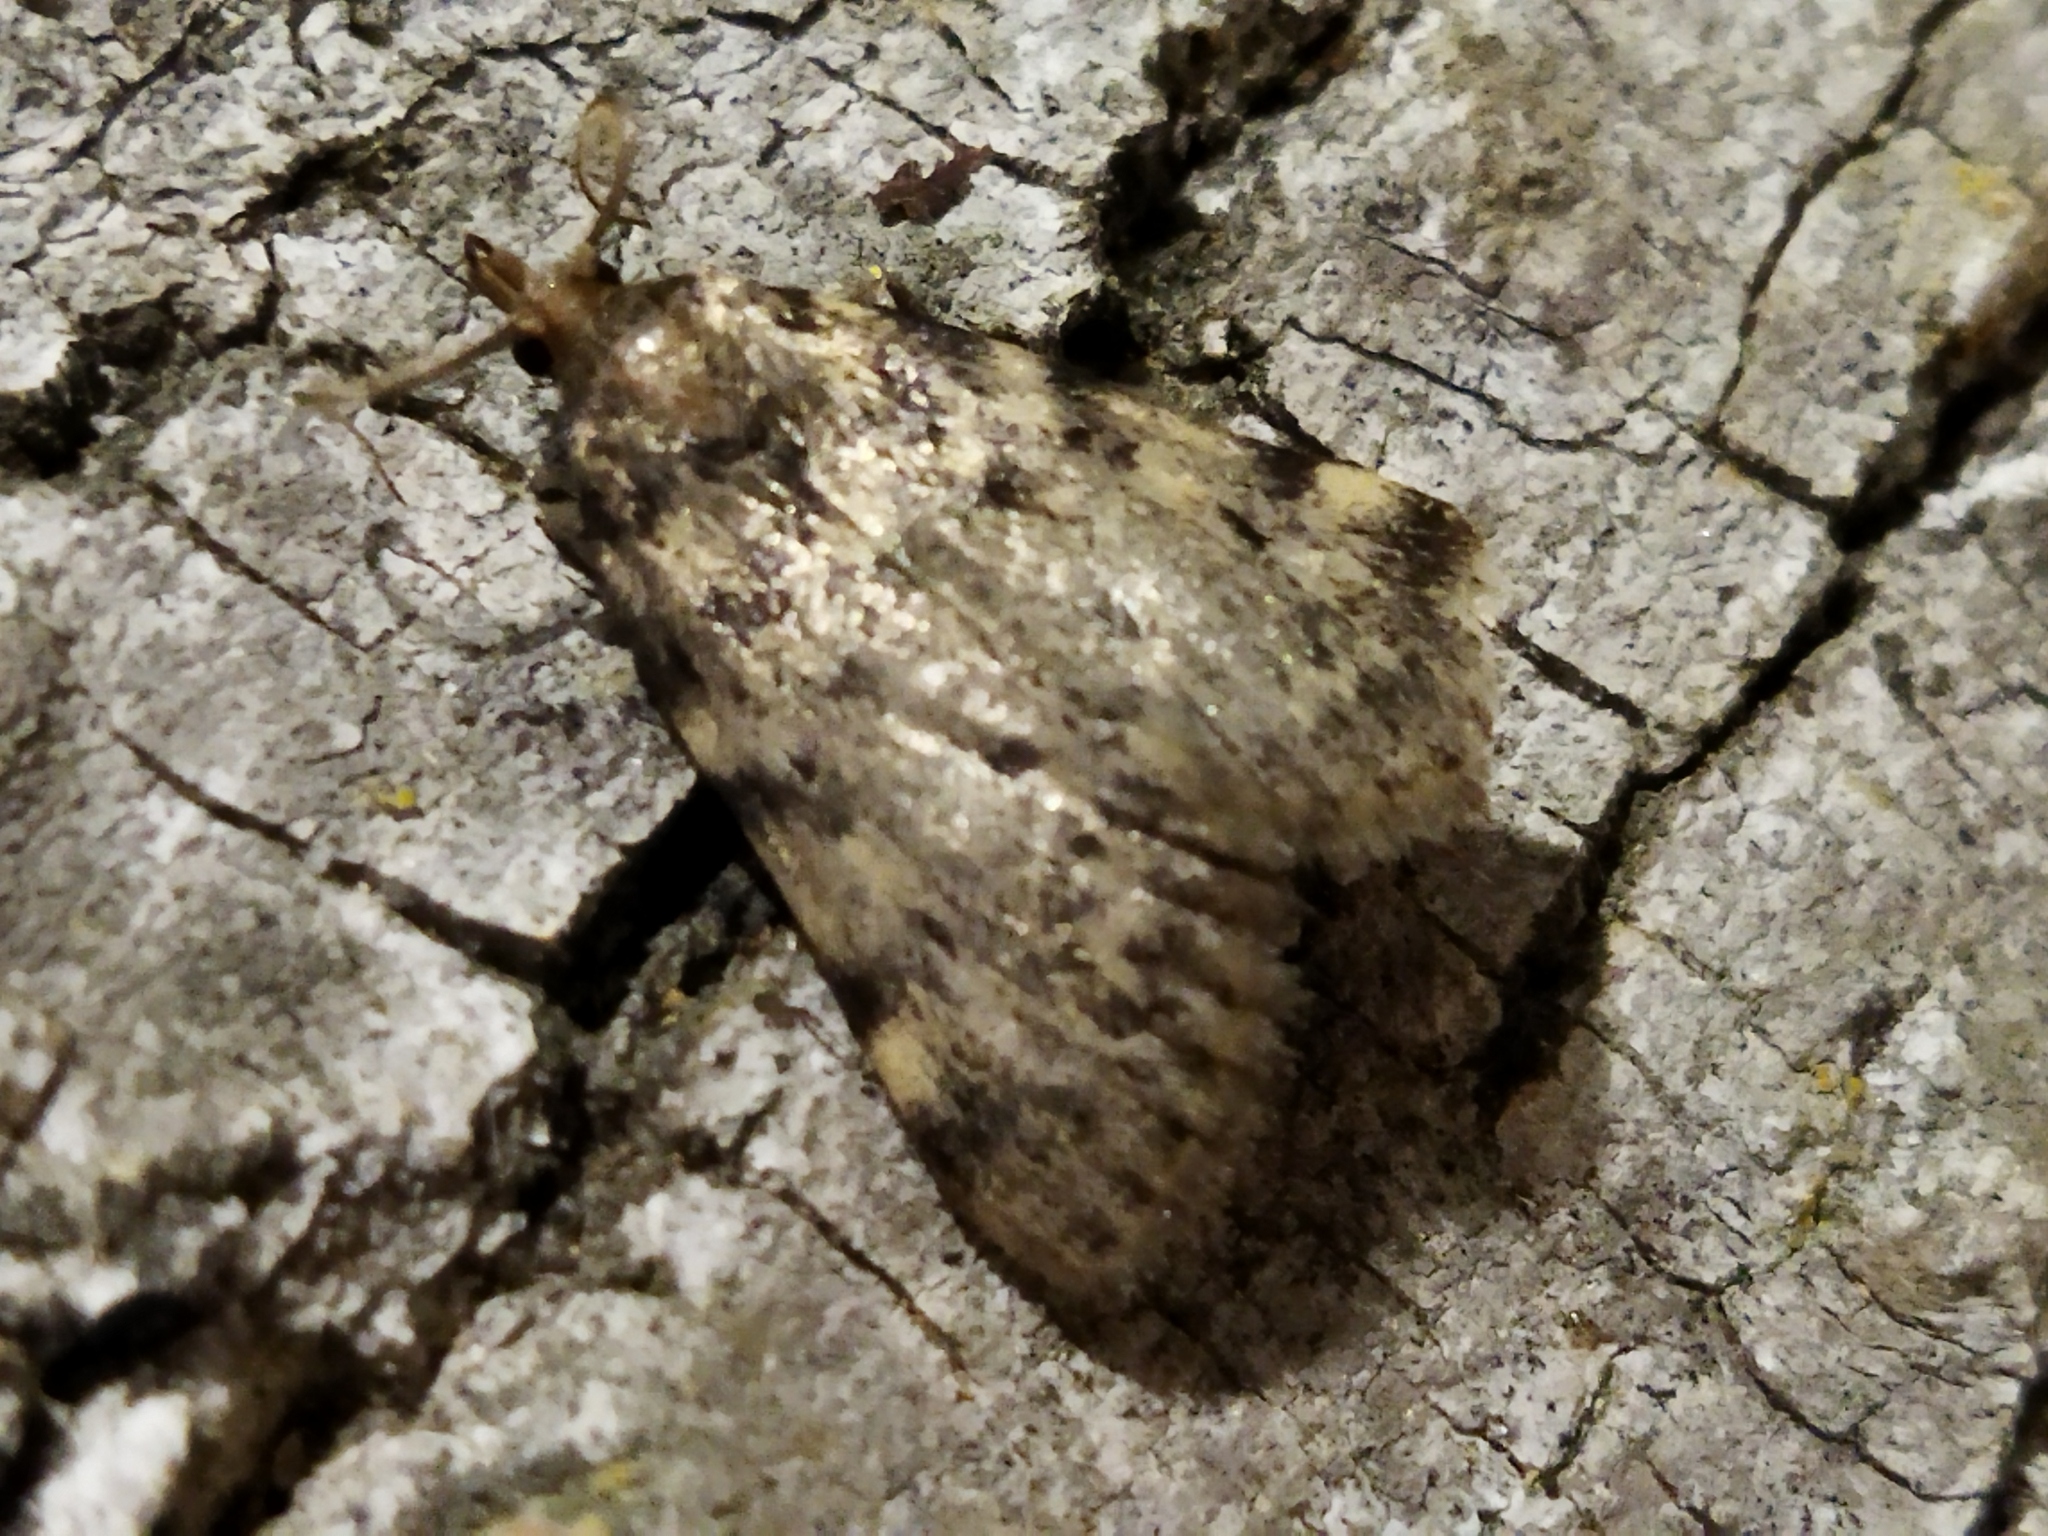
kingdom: Animalia
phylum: Arthropoda
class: Insecta
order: Lepidoptera
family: Pyralidae
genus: Aglossa
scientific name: Aglossa pinguinalis
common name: Large tabby
